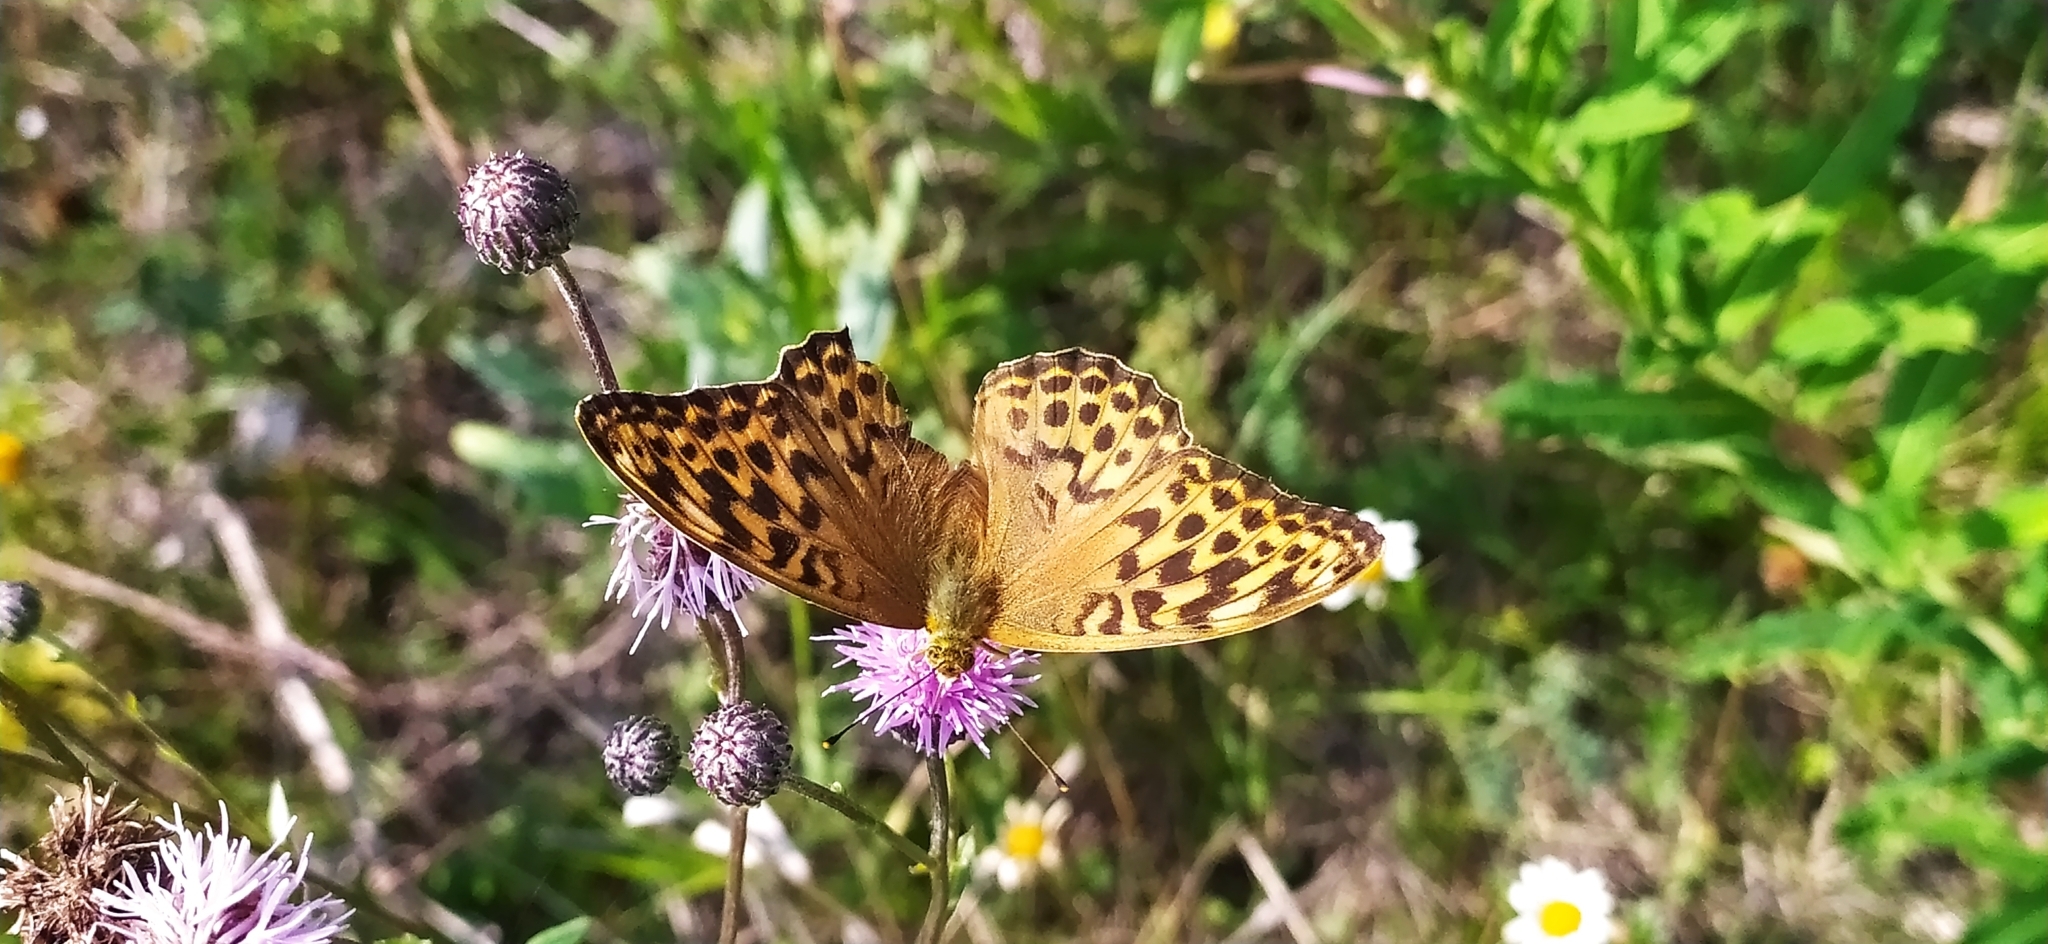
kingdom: Animalia
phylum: Arthropoda
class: Insecta
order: Lepidoptera
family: Nymphalidae
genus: Argynnis
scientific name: Argynnis paphia
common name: Silver-washed fritillary
